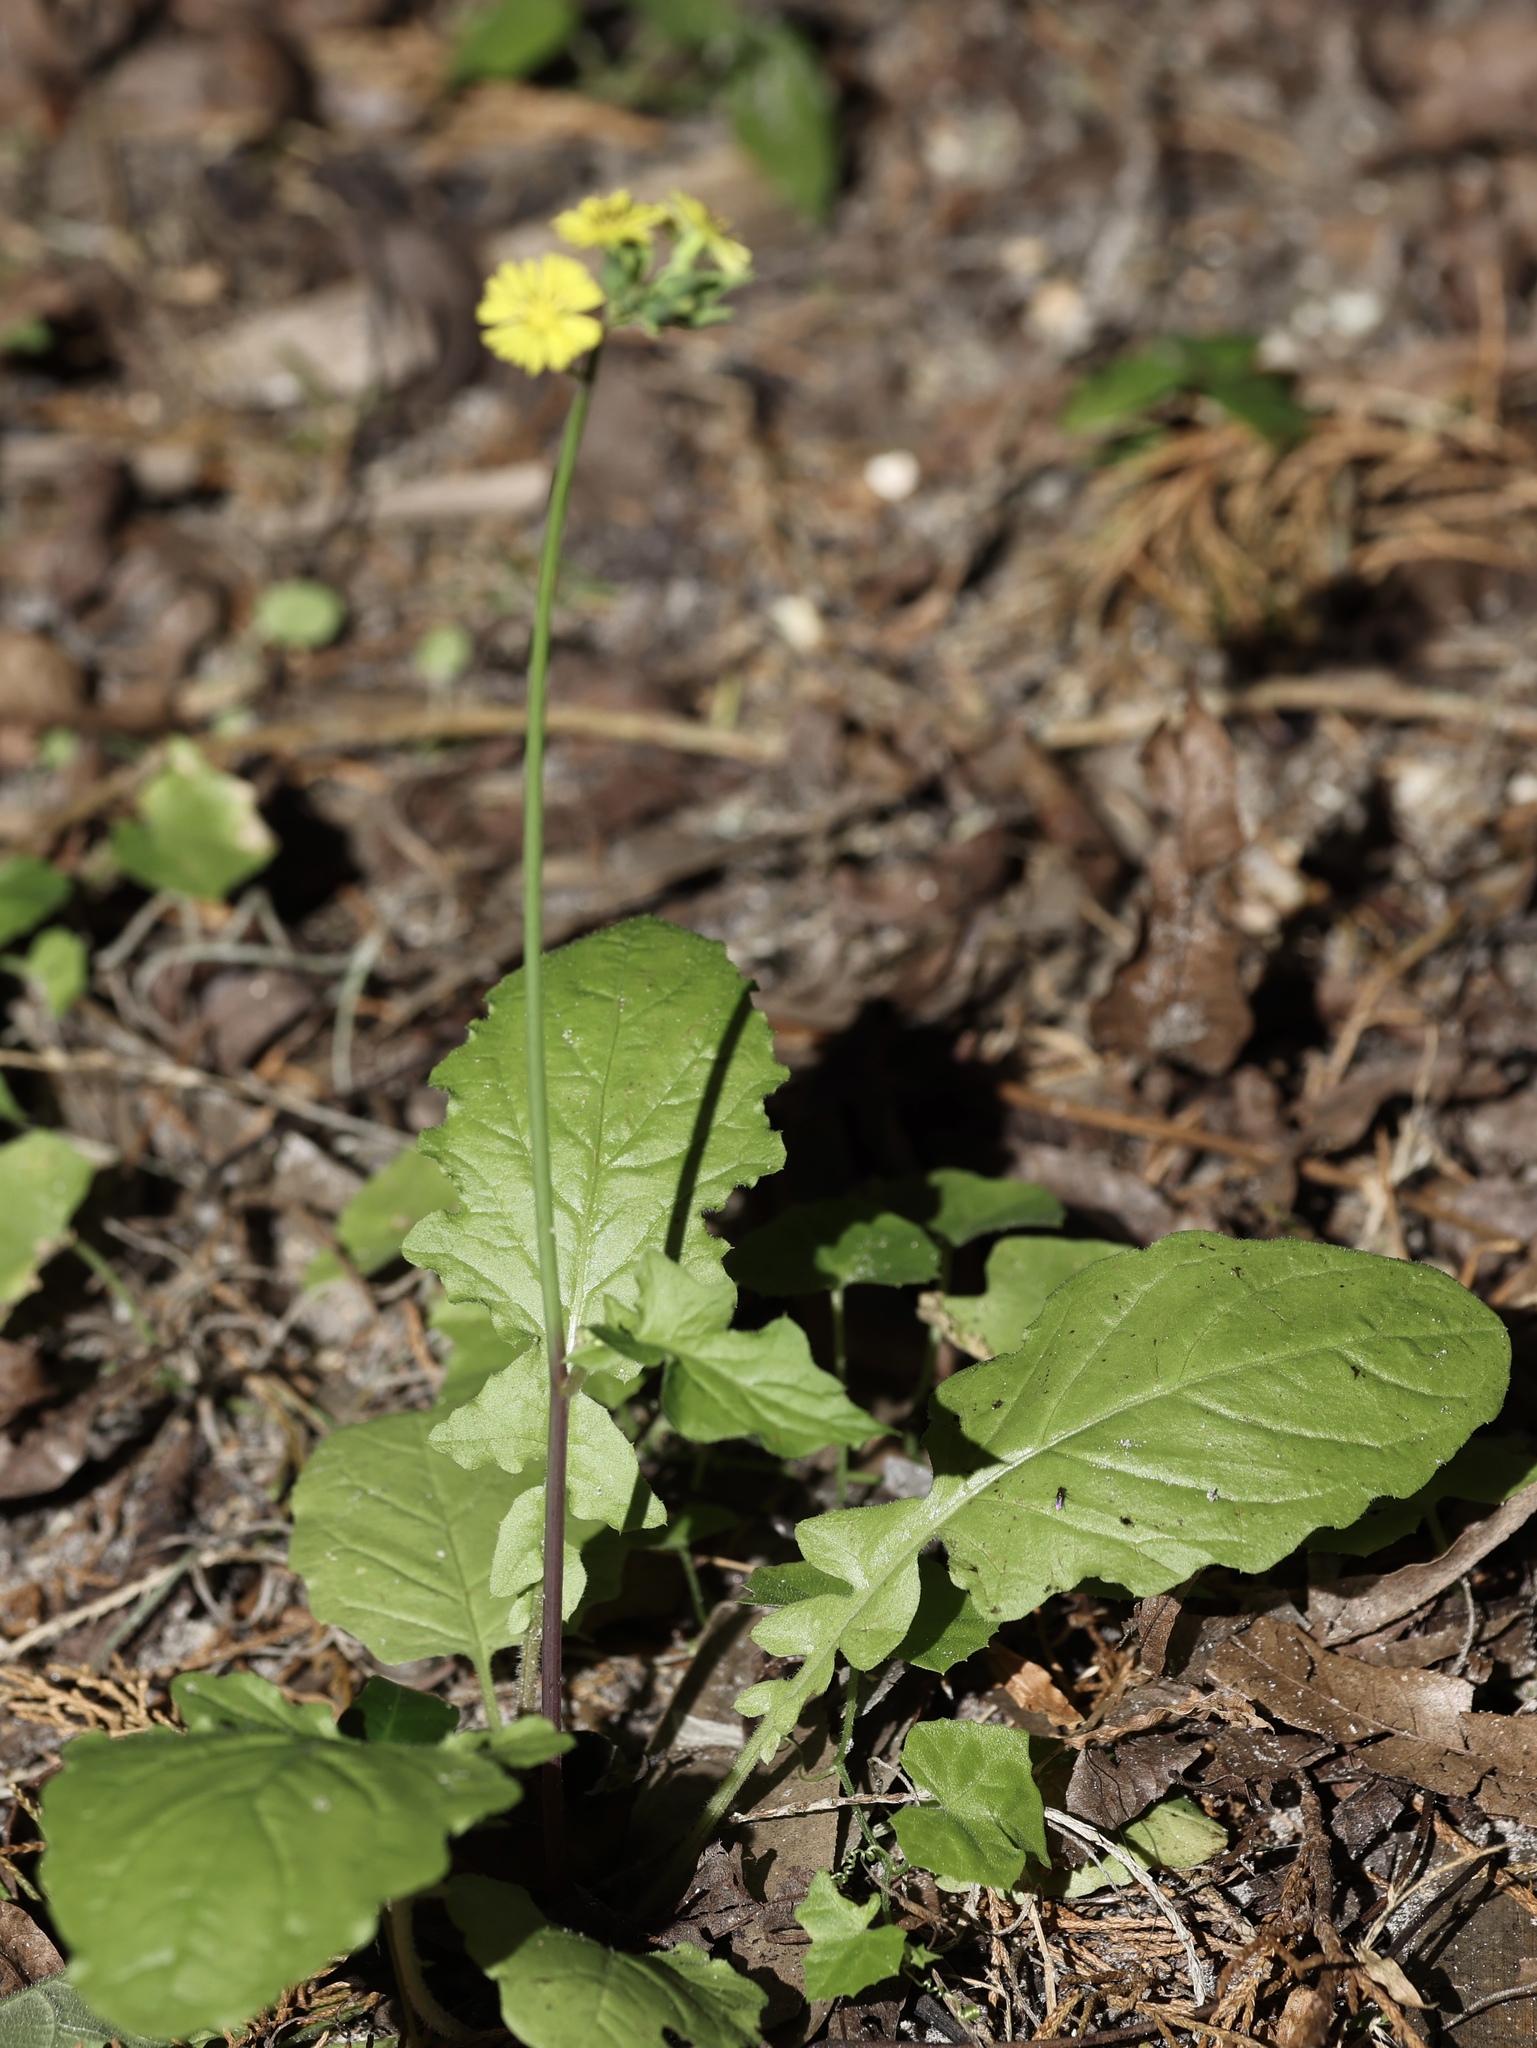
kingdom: Plantae
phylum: Tracheophyta
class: Magnoliopsida
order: Asterales
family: Asteraceae
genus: Youngia
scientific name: Youngia japonica
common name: Oriental false hawksbeard
